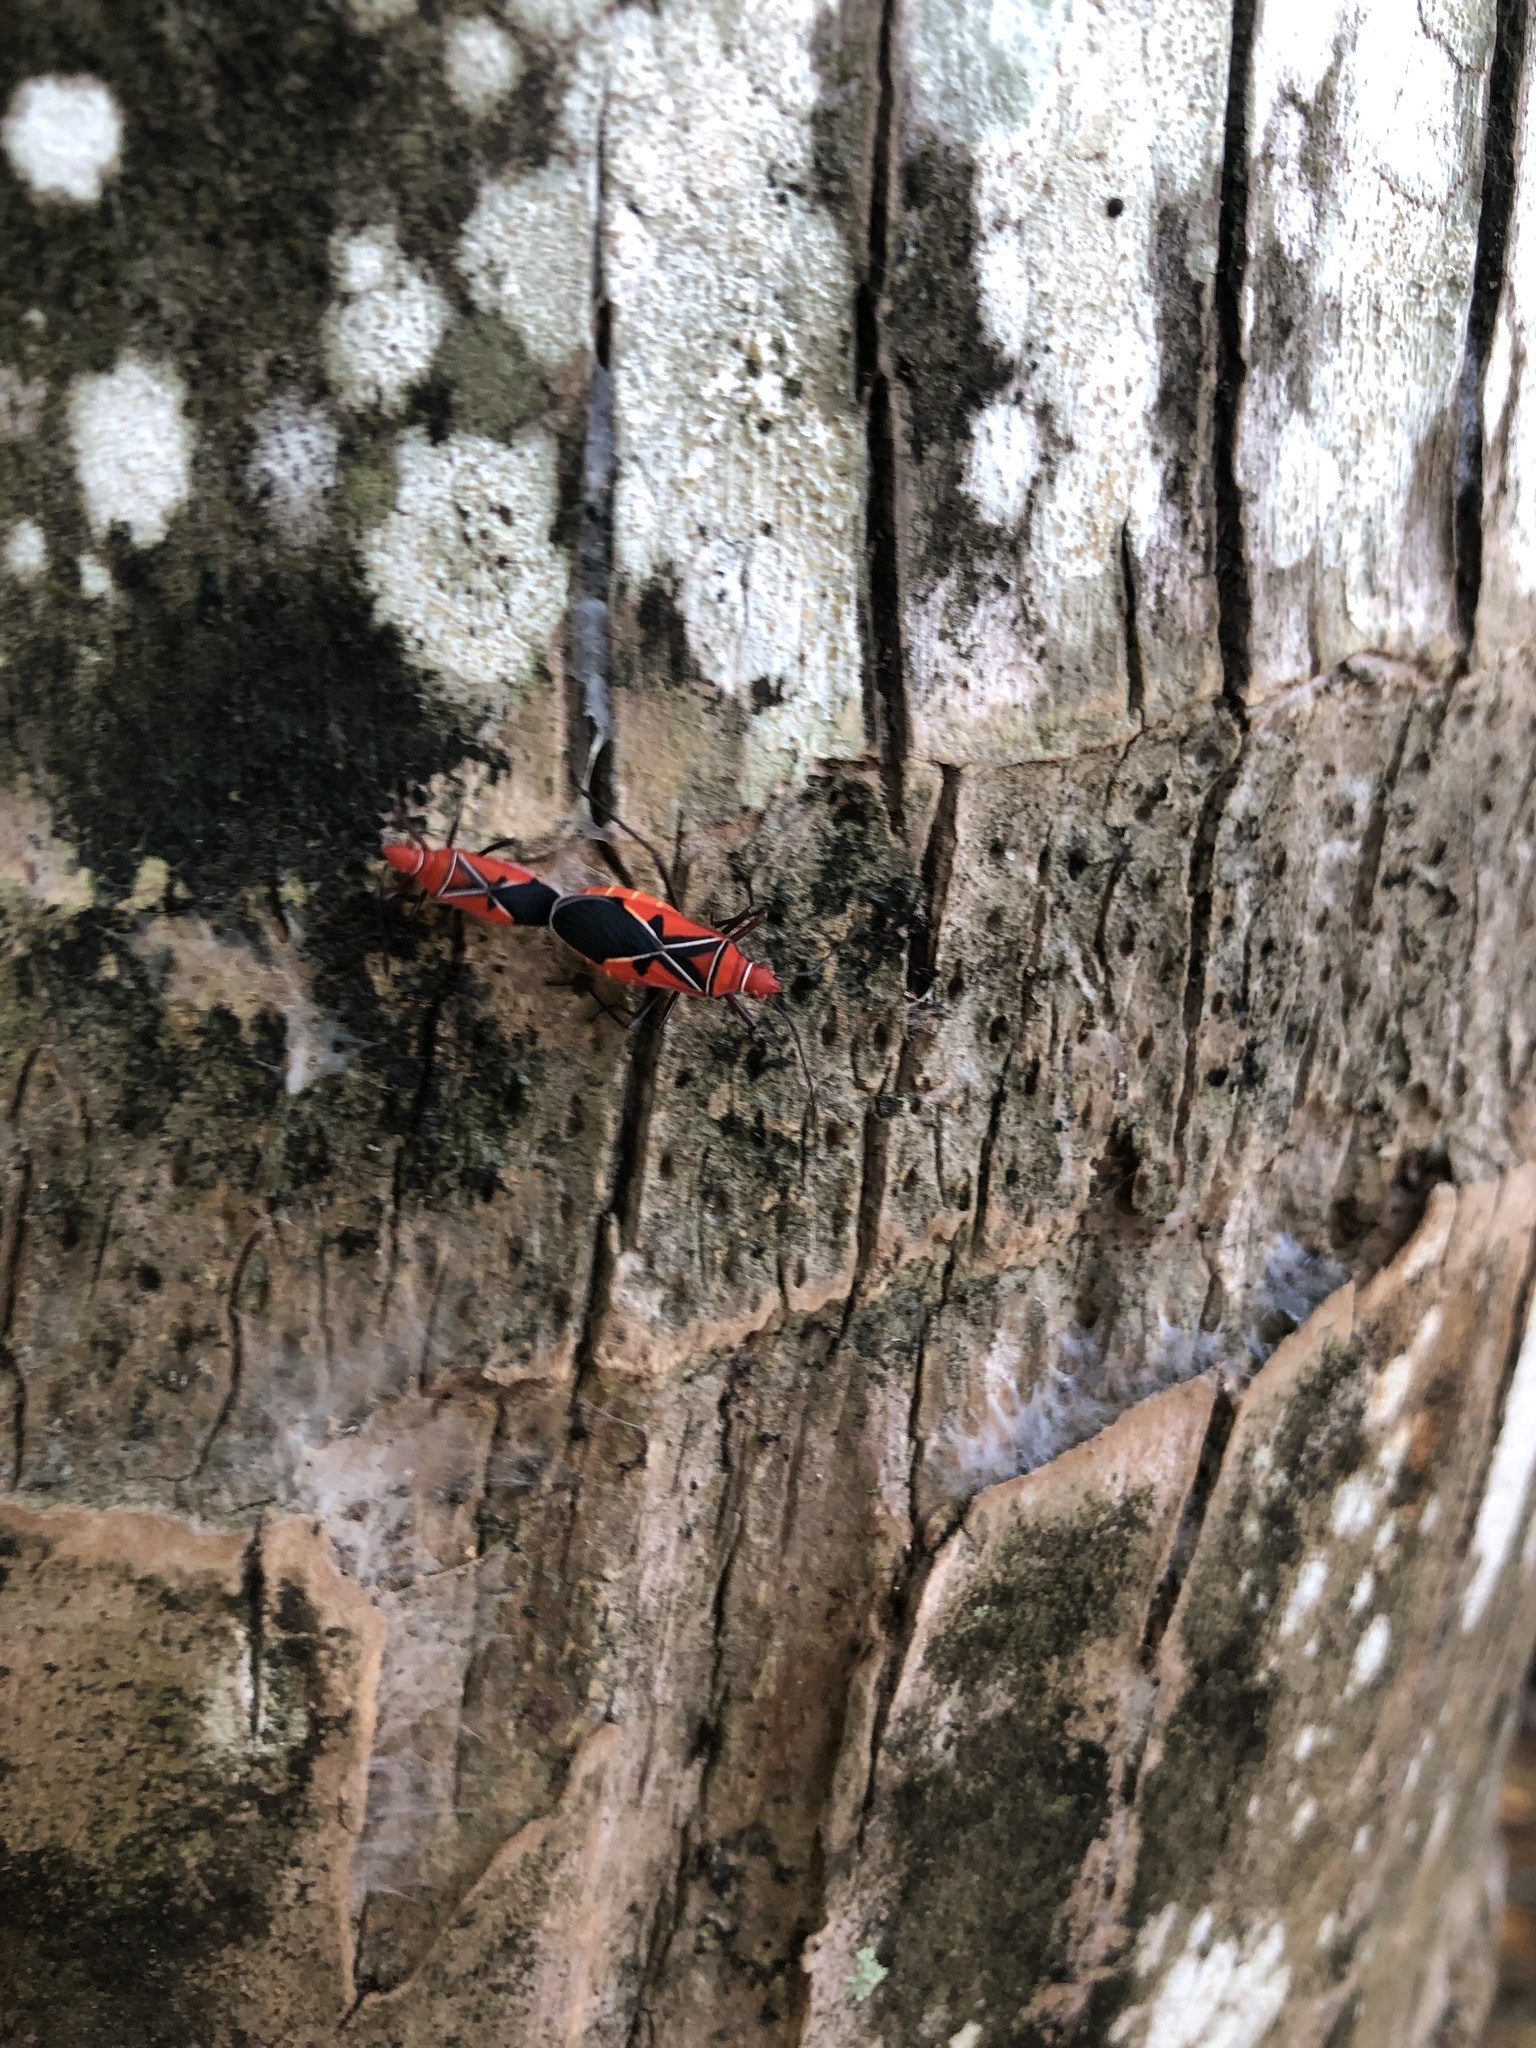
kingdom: Animalia
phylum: Arthropoda
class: Insecta
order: Hemiptera
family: Pyrrhocoridae
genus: Dysdercus
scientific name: Dysdercus andreae
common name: St. andrew's cotton stainer
